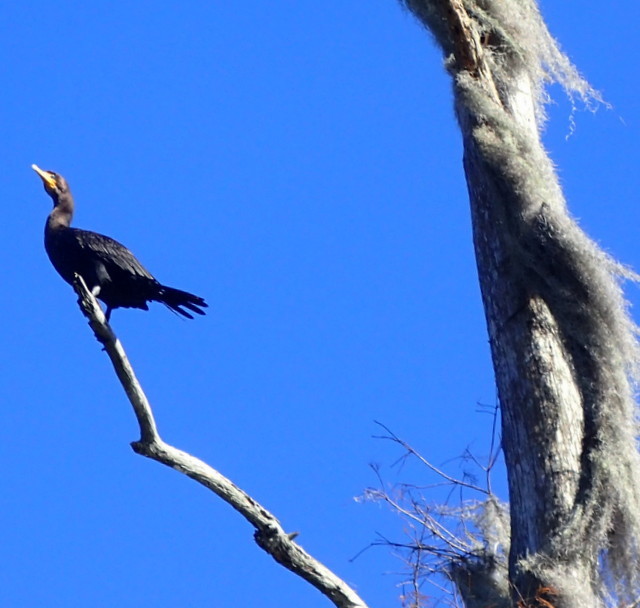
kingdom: Animalia
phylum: Chordata
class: Aves
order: Suliformes
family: Phalacrocoracidae
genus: Phalacrocorax
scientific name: Phalacrocorax auritus
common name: Double-crested cormorant
